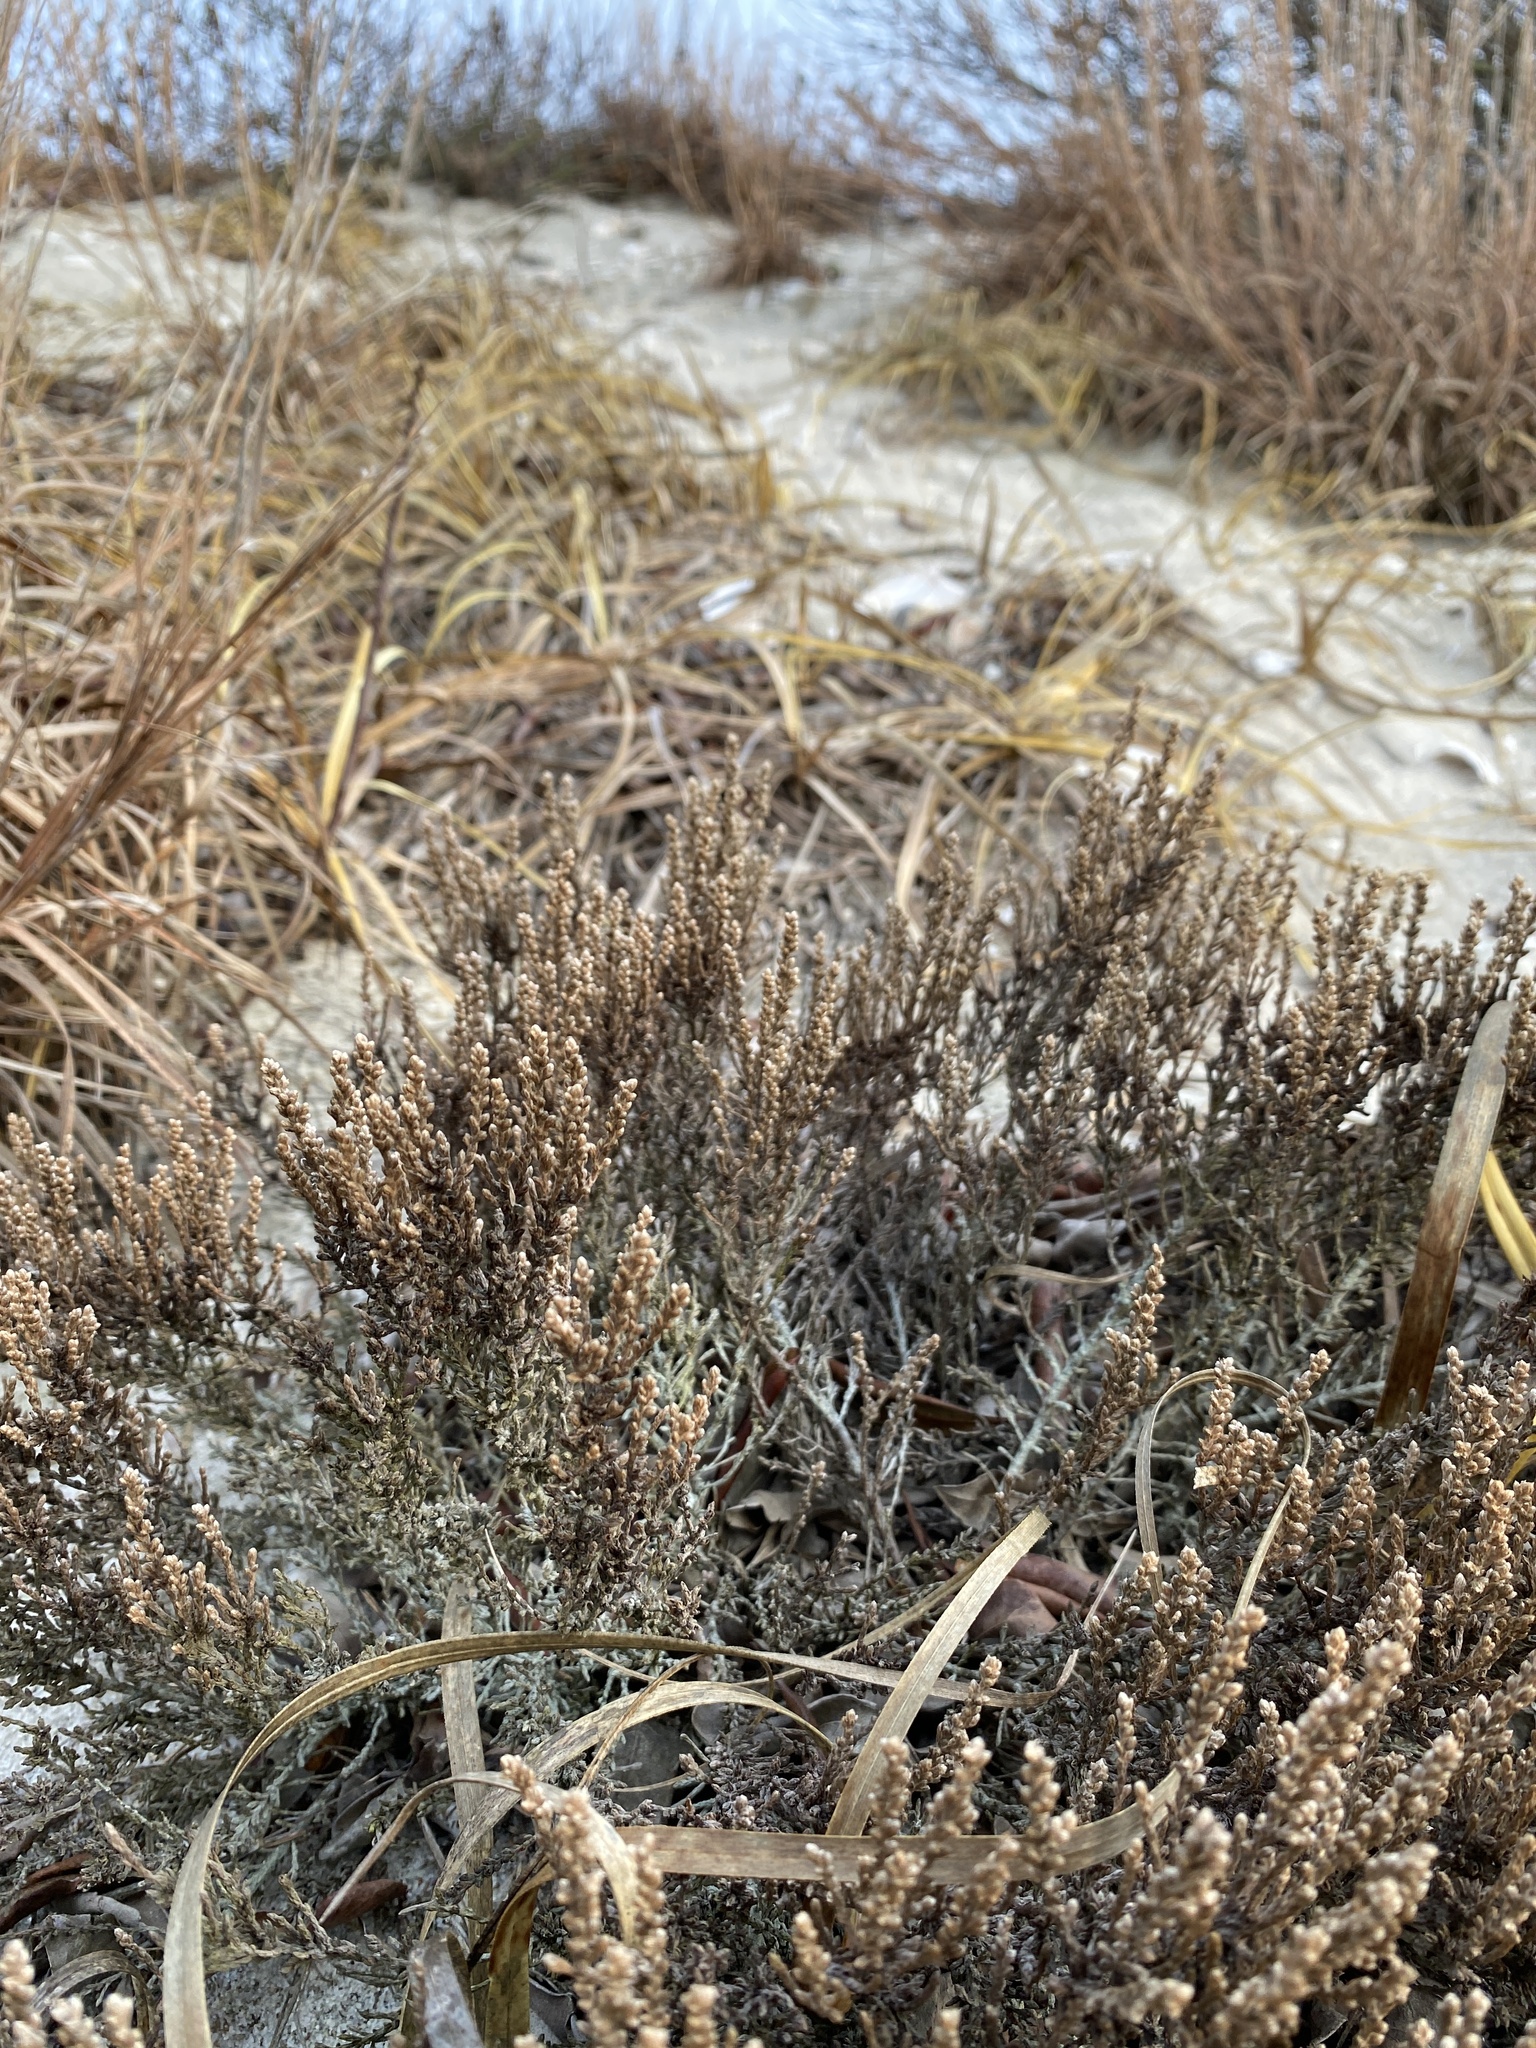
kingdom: Plantae
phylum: Tracheophyta
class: Magnoliopsida
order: Malvales
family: Cistaceae
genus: Hudsonia
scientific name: Hudsonia tomentosa
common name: Beach-heath
